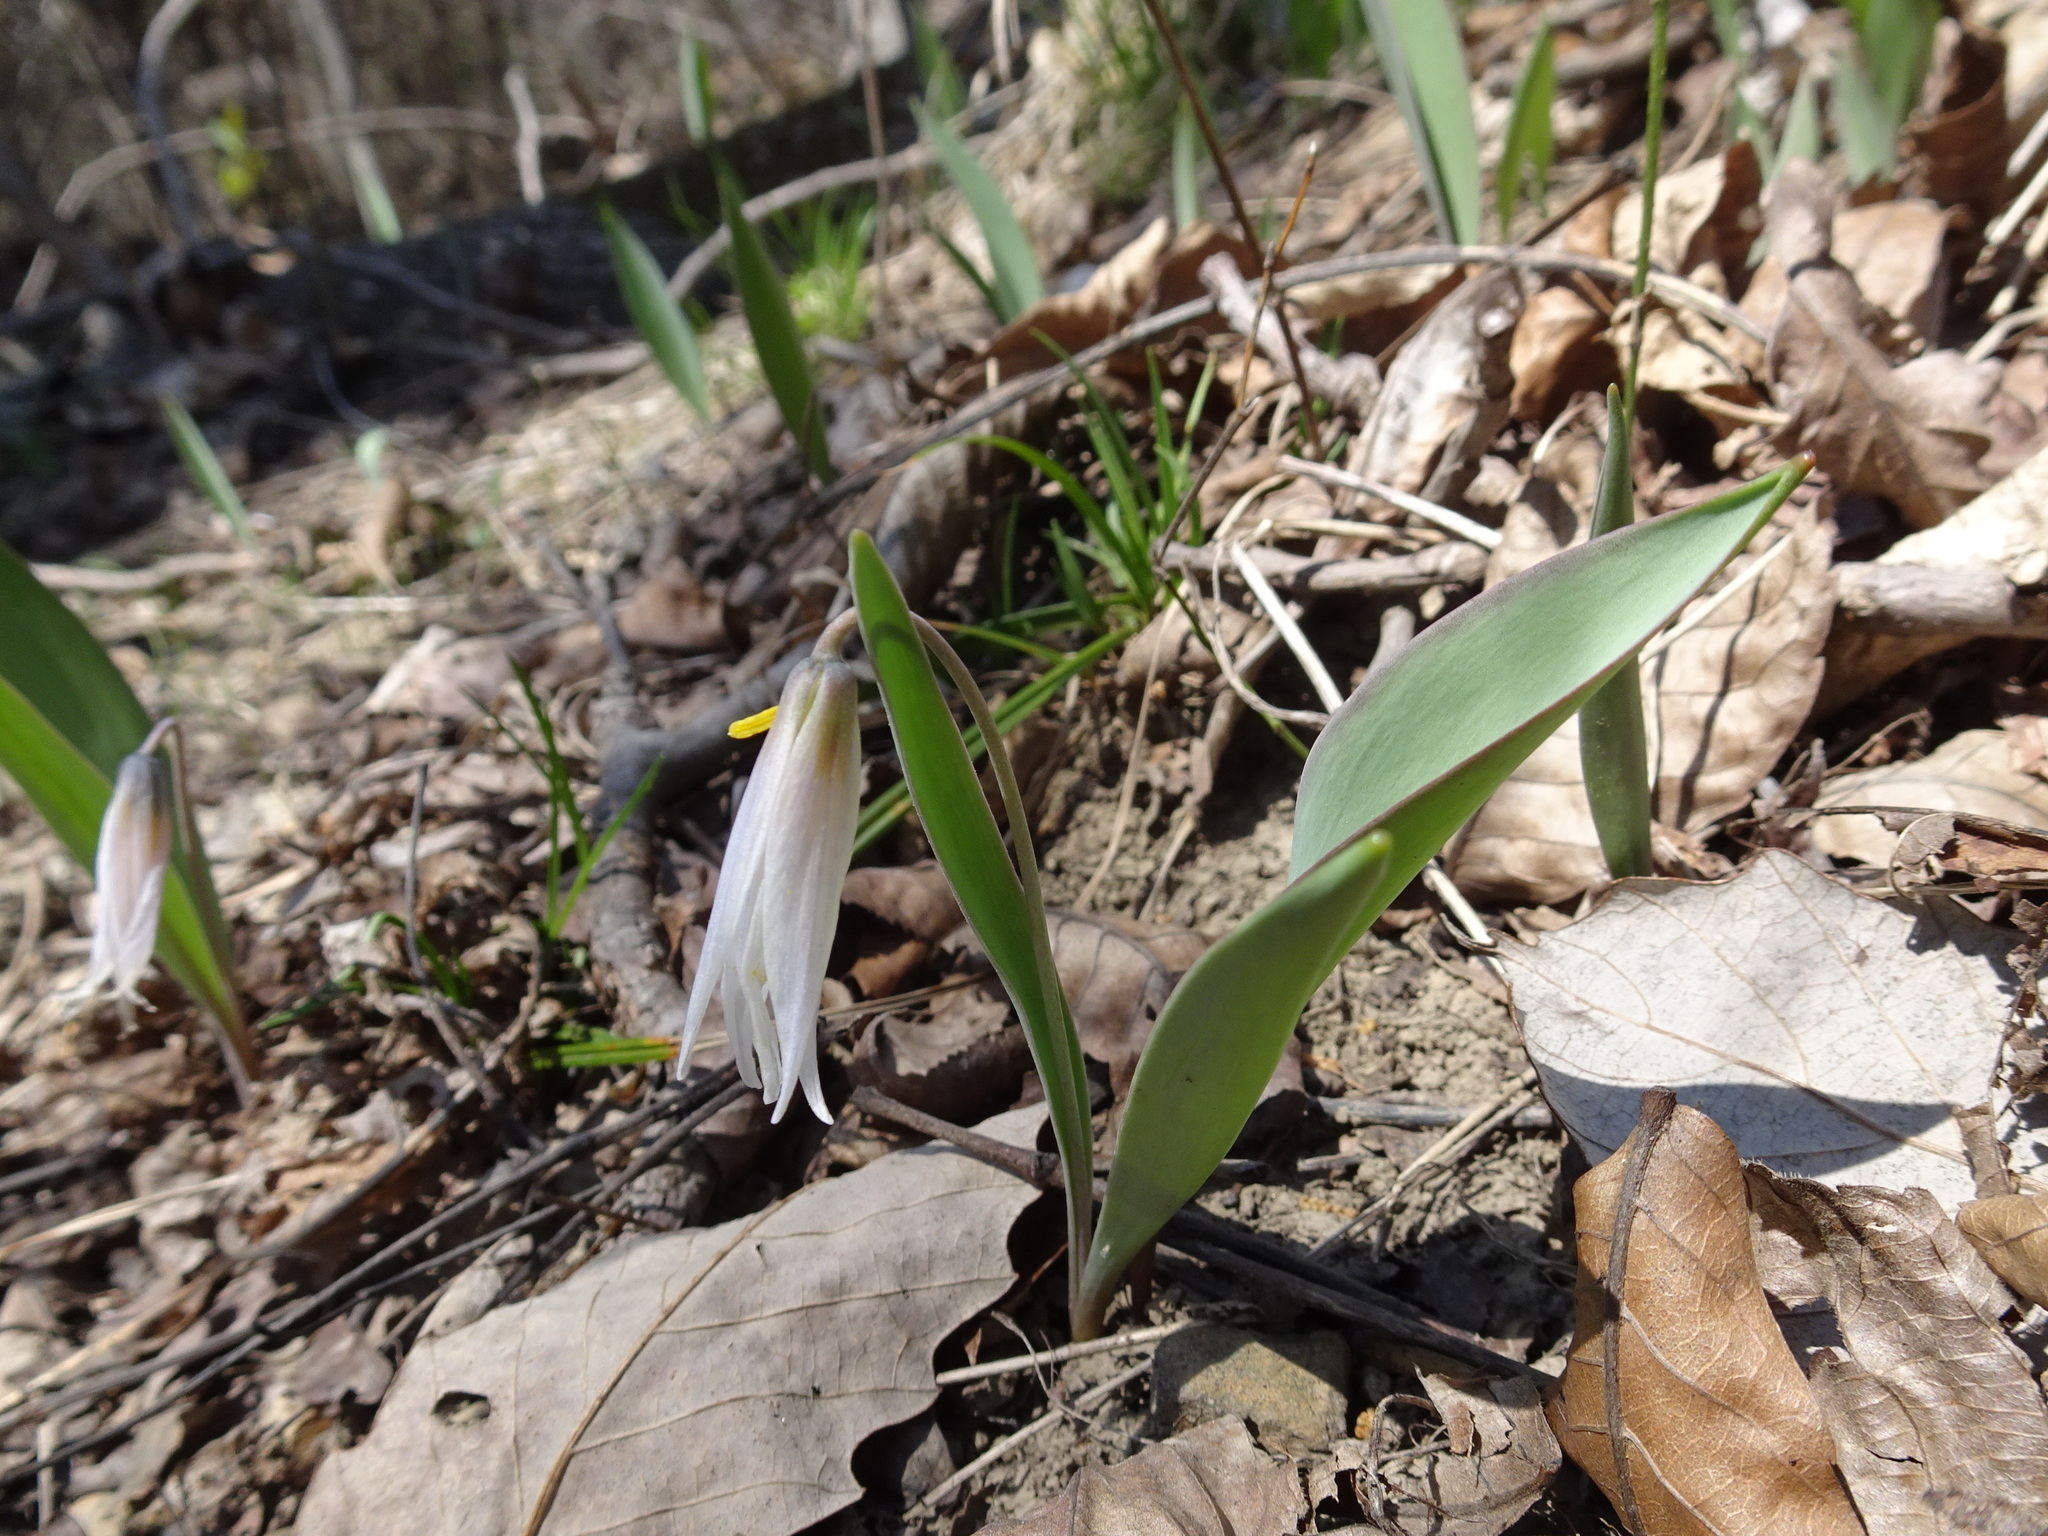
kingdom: Plantae
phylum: Tracheophyta
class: Liliopsida
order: Liliales
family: Liliaceae
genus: Erythronium
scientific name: Erythronium mesochoreum
